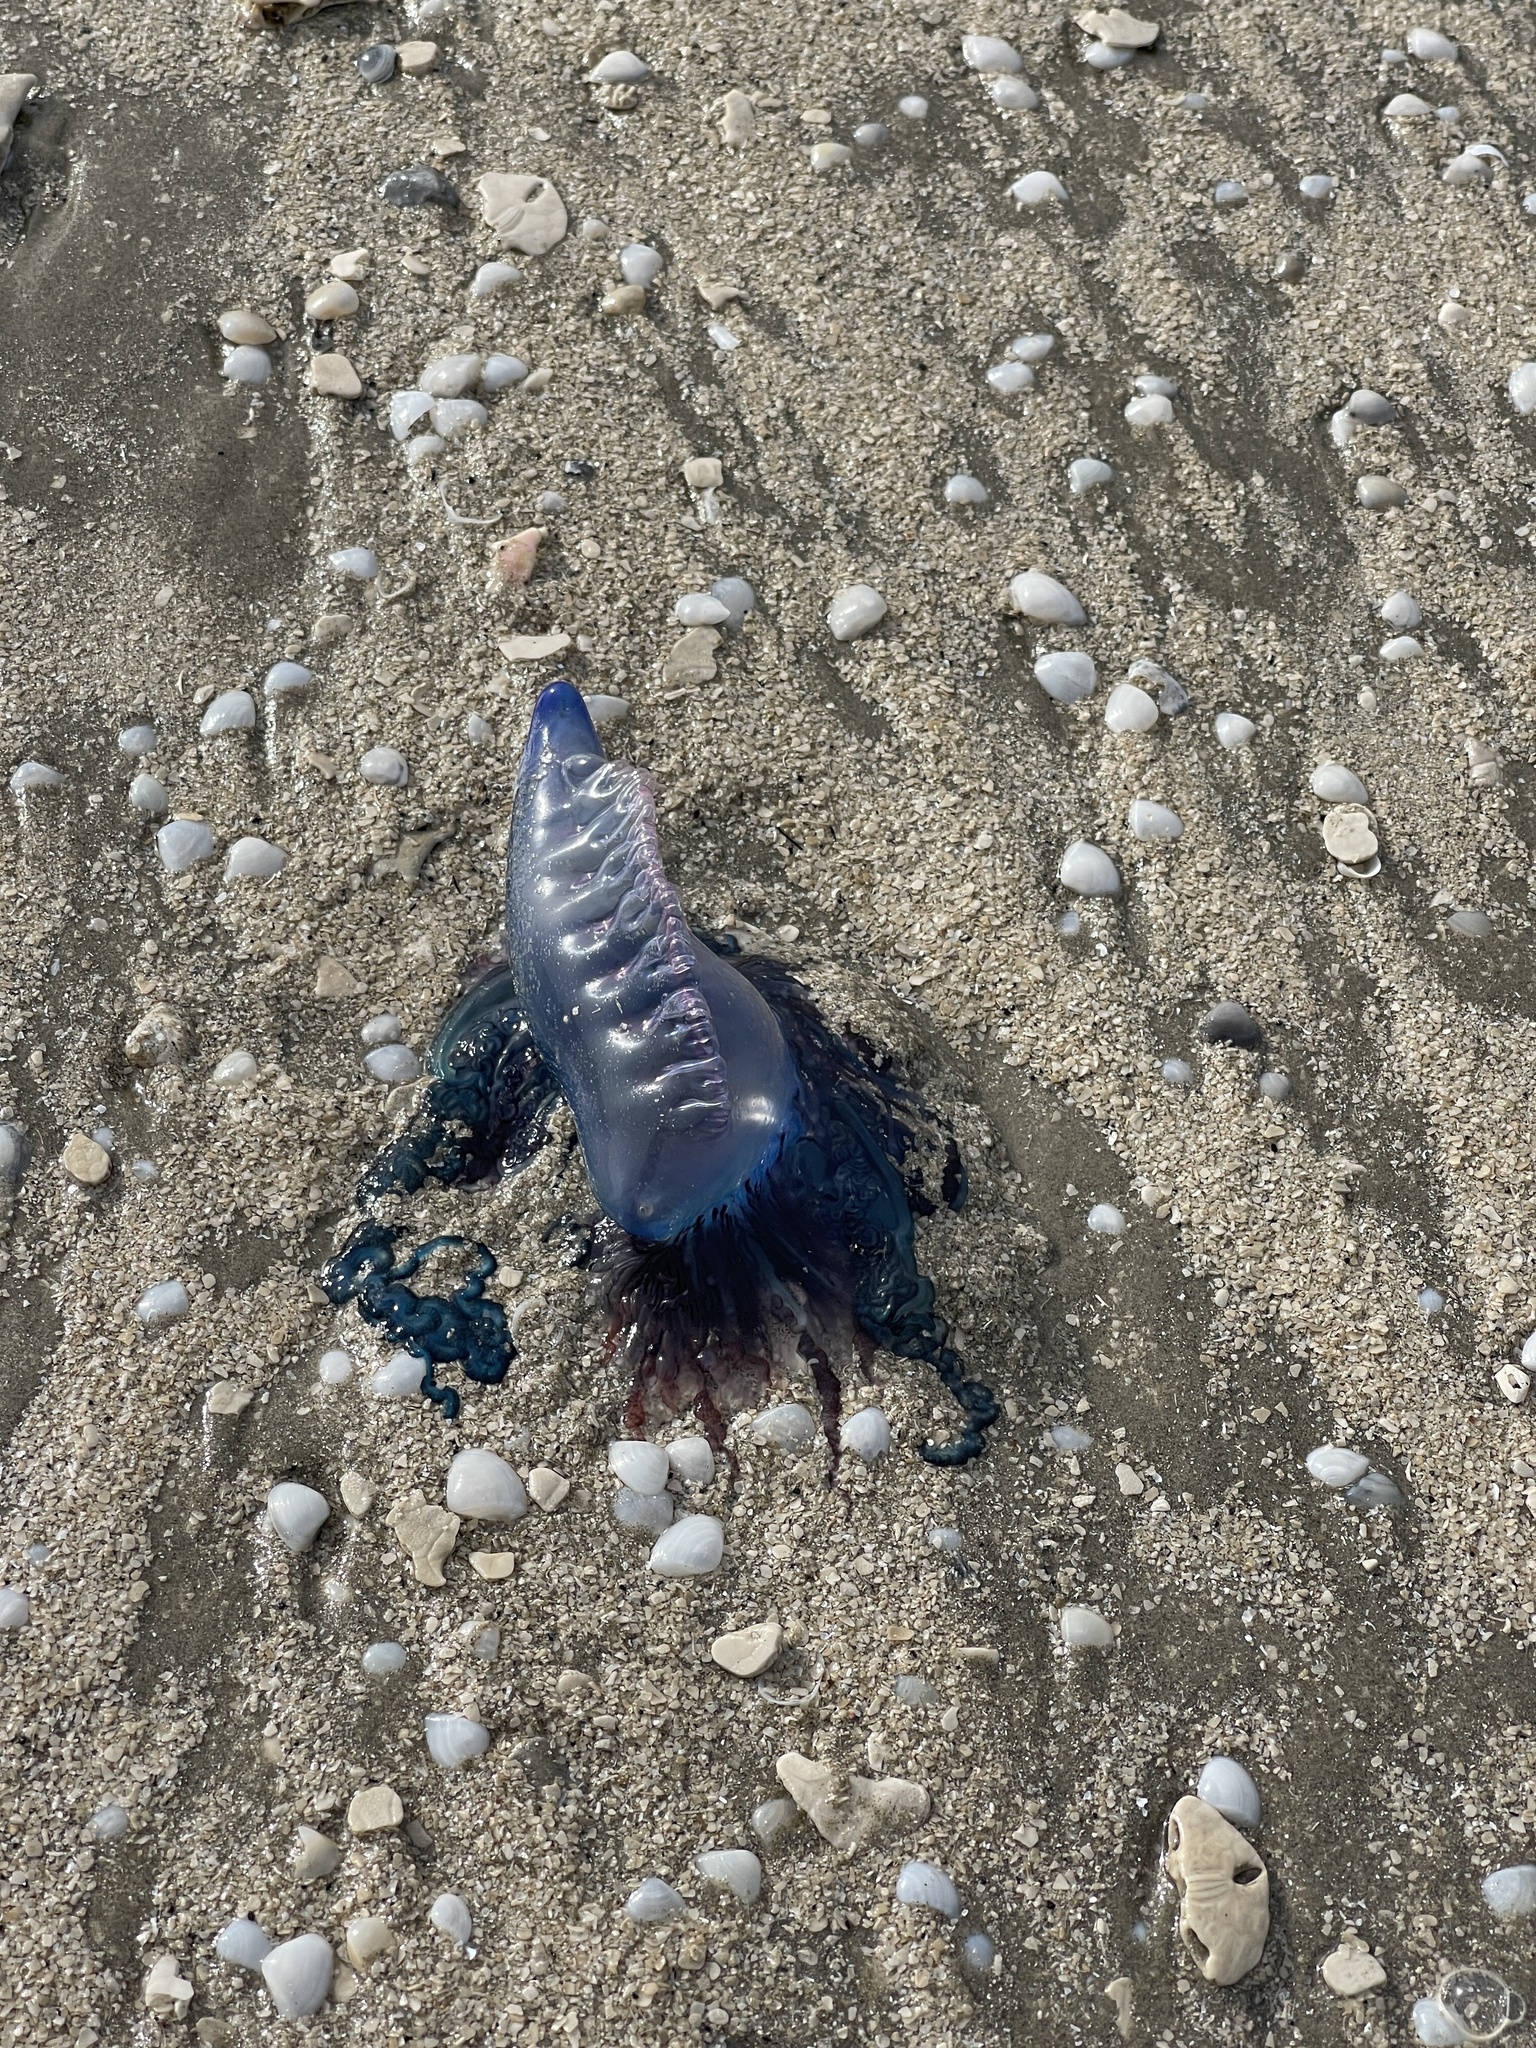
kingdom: Animalia
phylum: Cnidaria
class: Hydrozoa
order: Siphonophorae
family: Physaliidae
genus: Physalia
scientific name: Physalia physalis
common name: Portuguese man-of-war
